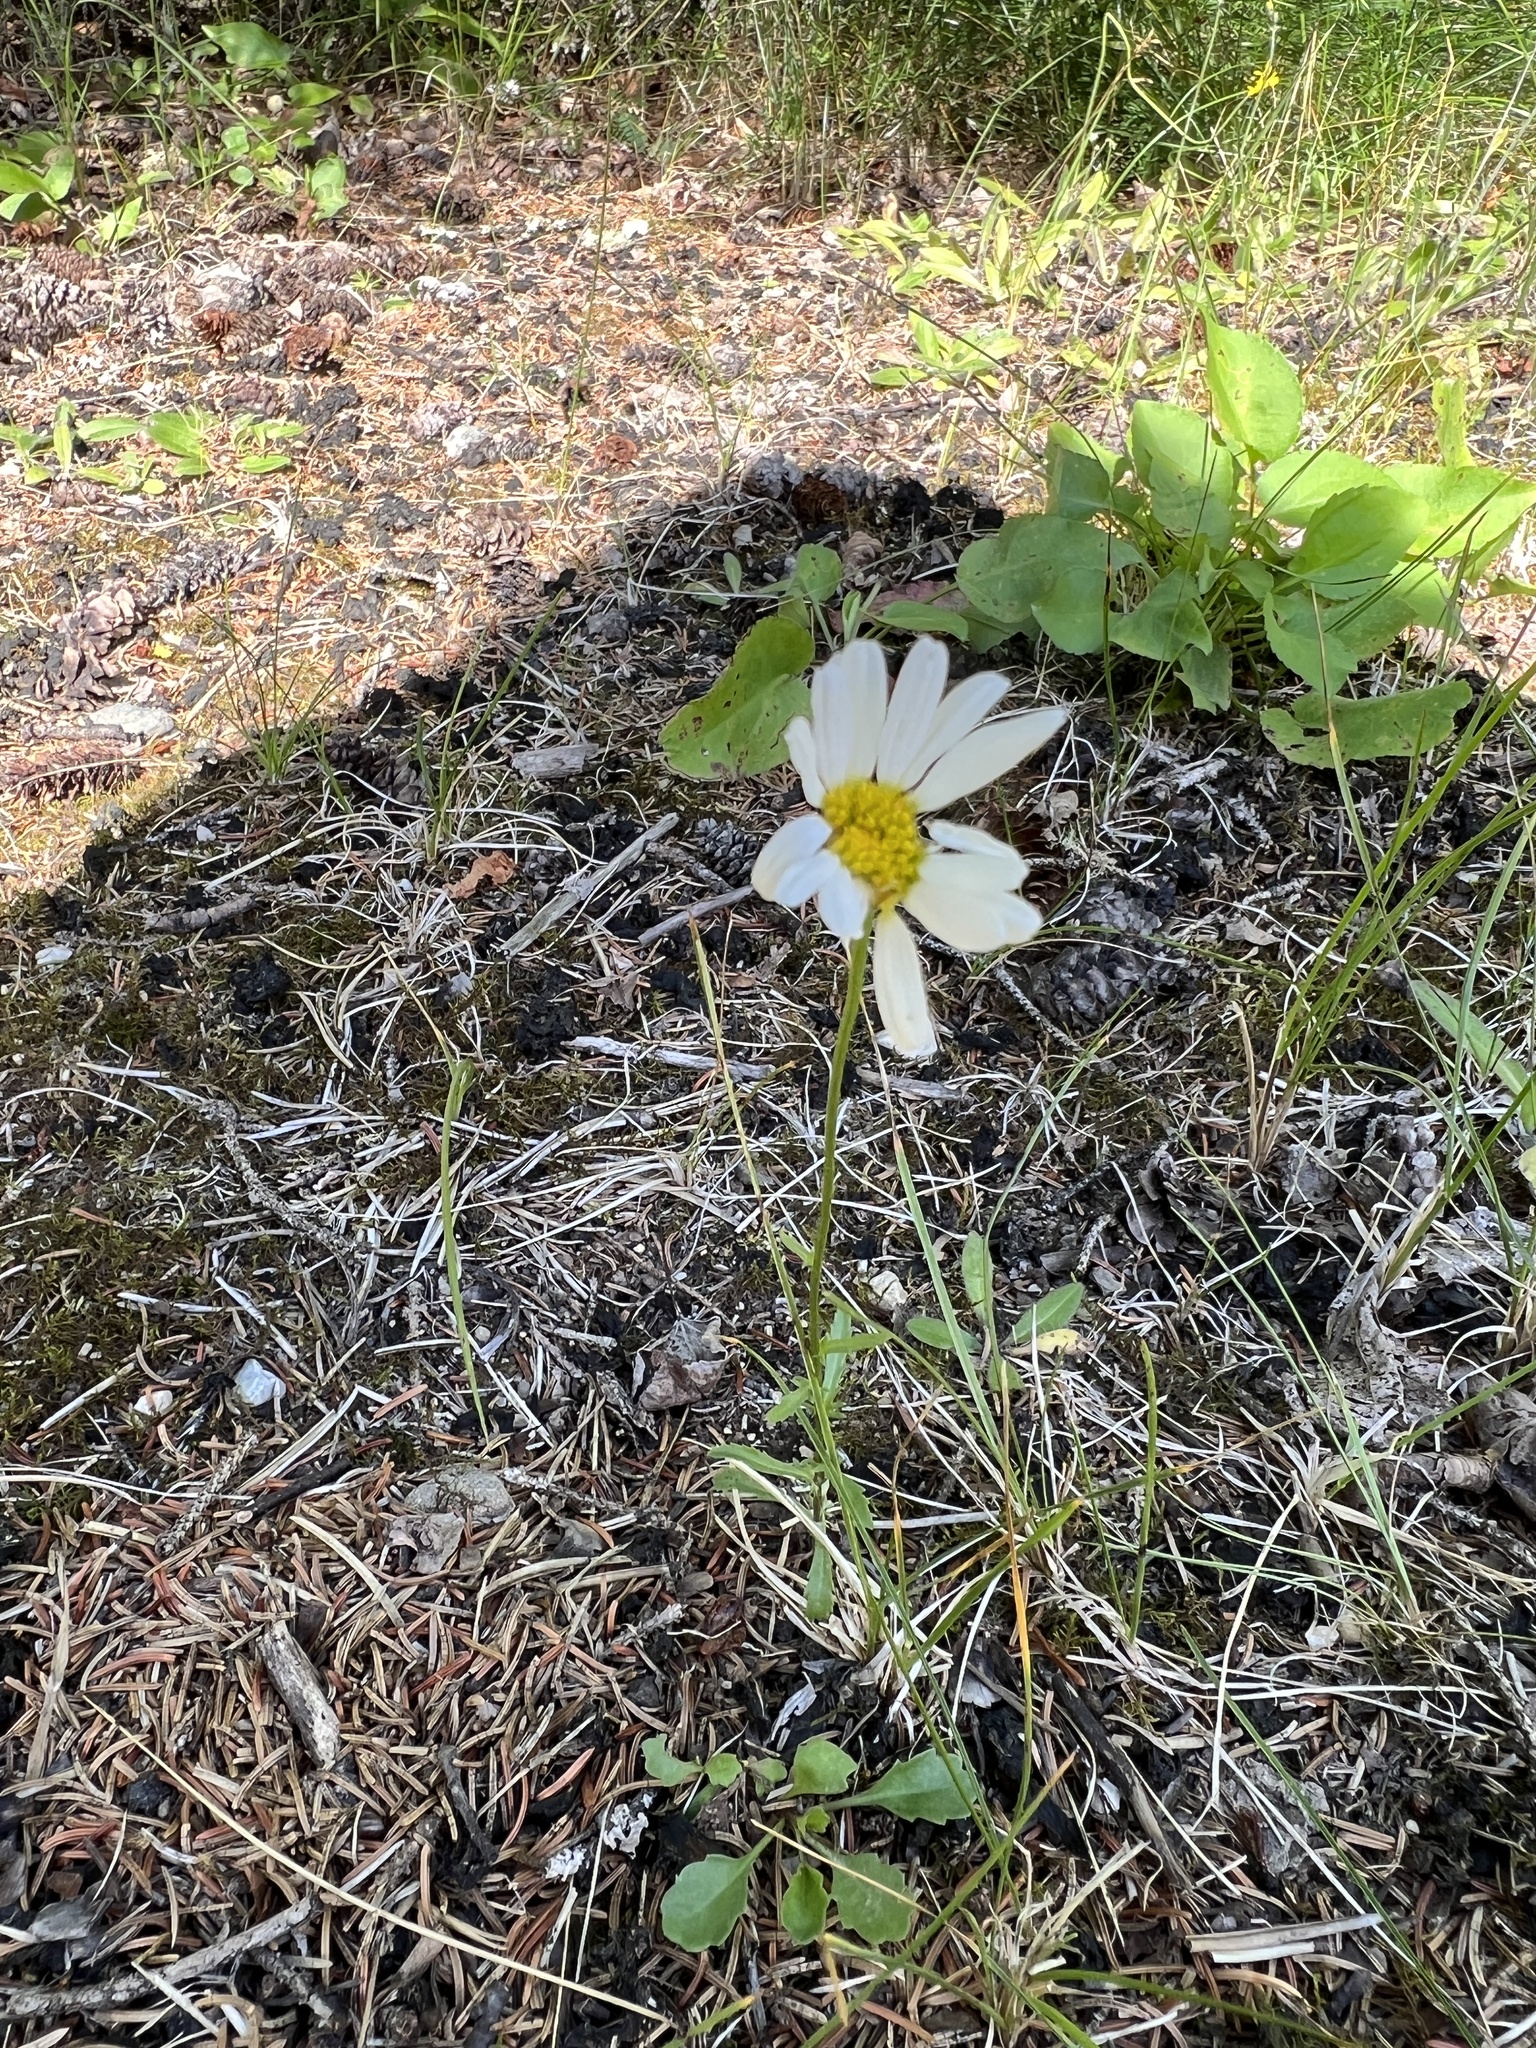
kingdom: Plantae
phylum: Tracheophyta
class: Magnoliopsida
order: Asterales
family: Asteraceae
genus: Leucanthemum
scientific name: Leucanthemum vulgare
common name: Oxeye daisy
